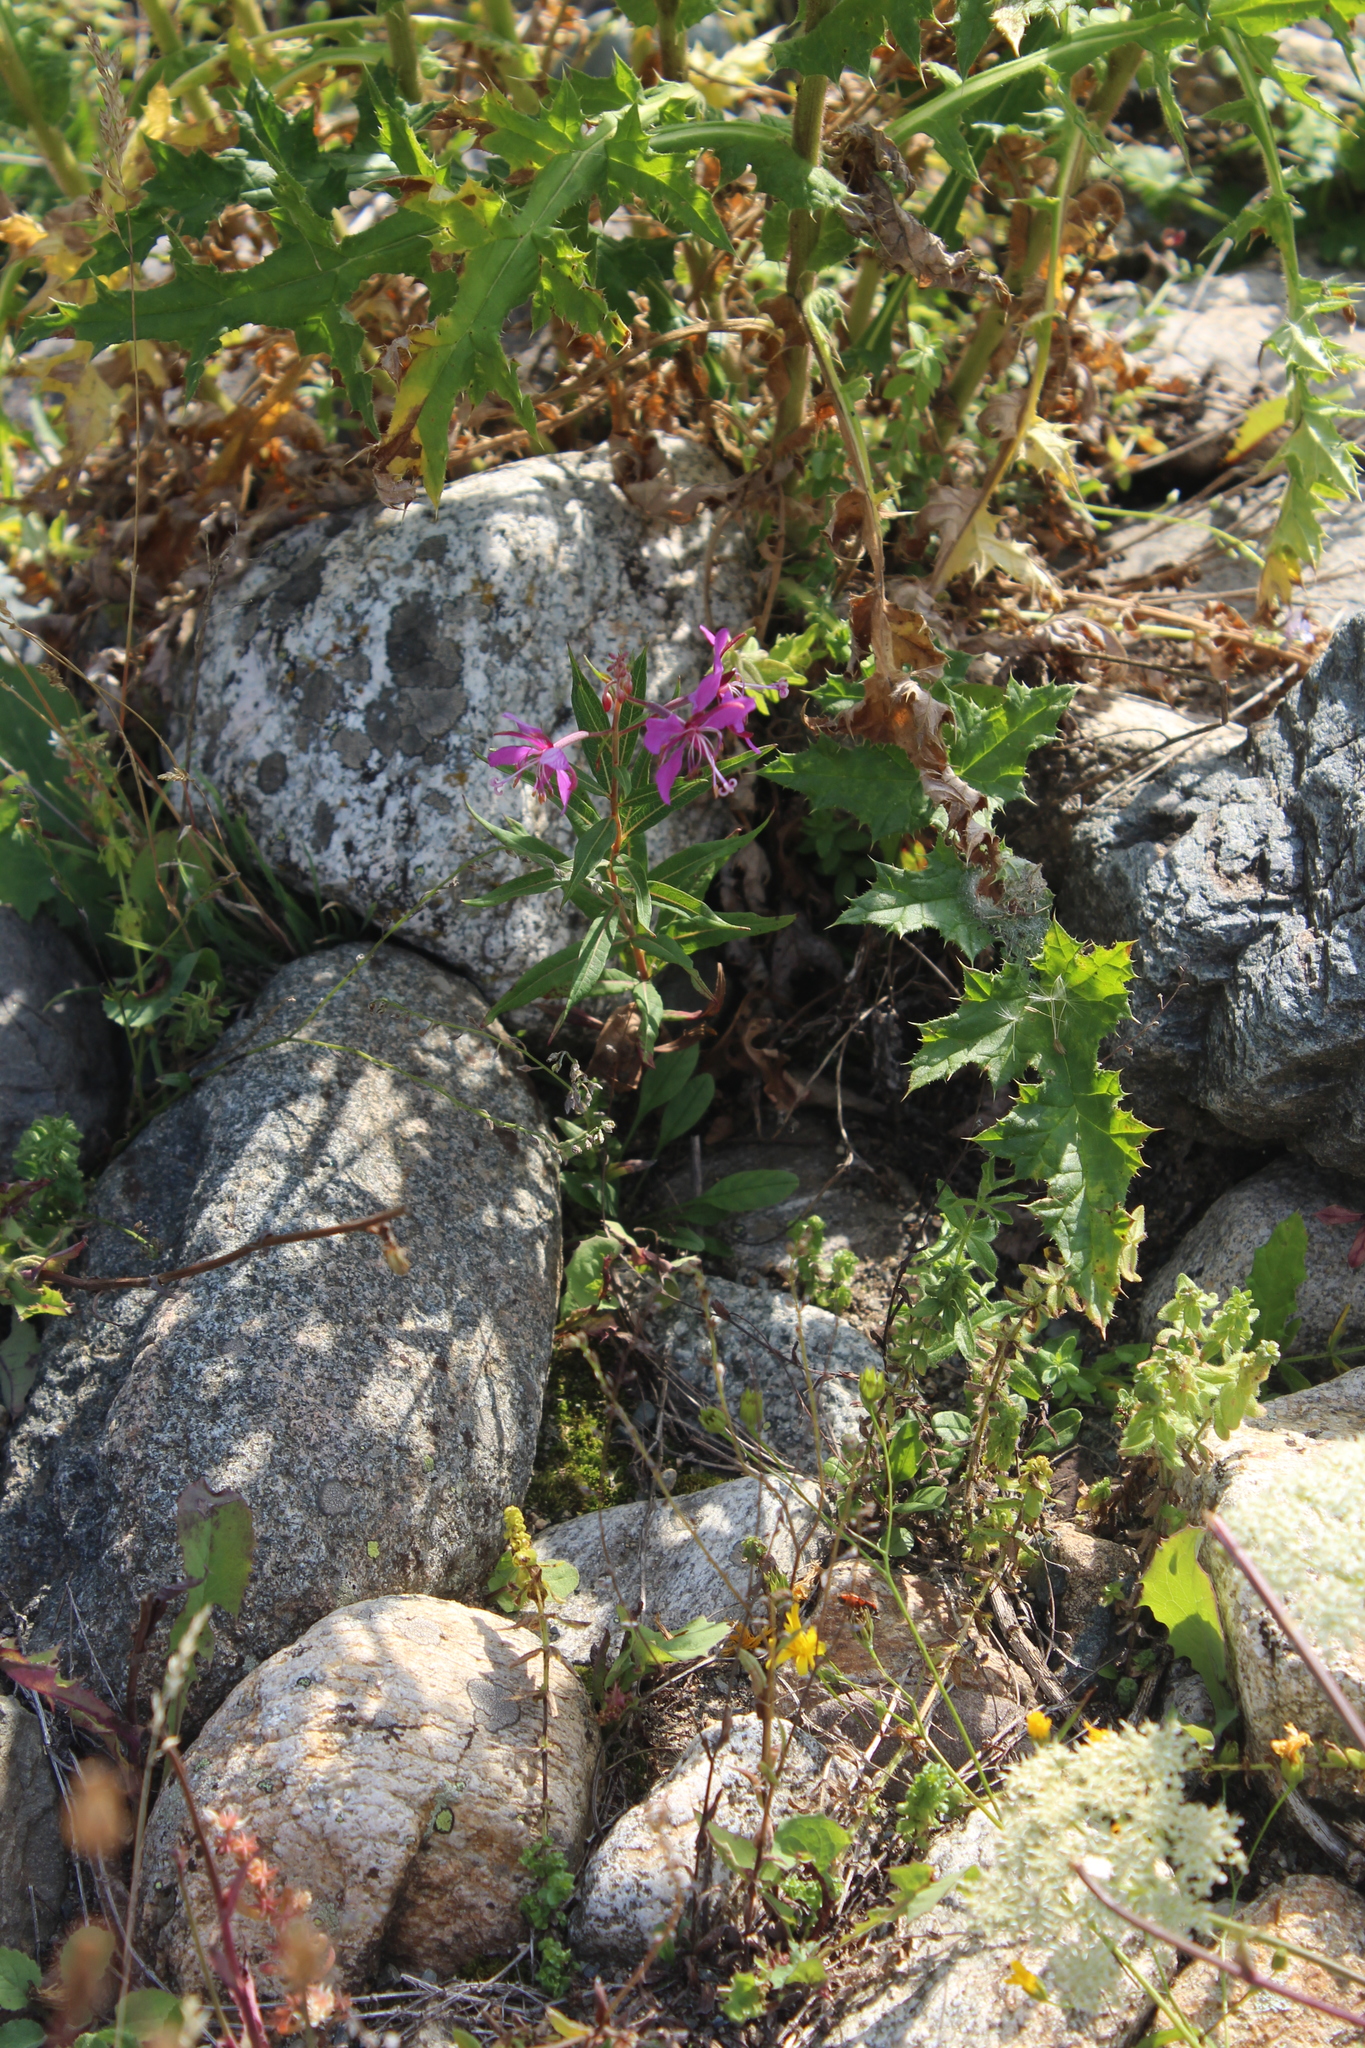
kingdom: Plantae
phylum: Tracheophyta
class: Magnoliopsida
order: Myrtales
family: Onagraceae
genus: Chamaenerion
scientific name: Chamaenerion angustifolium
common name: Fireweed
